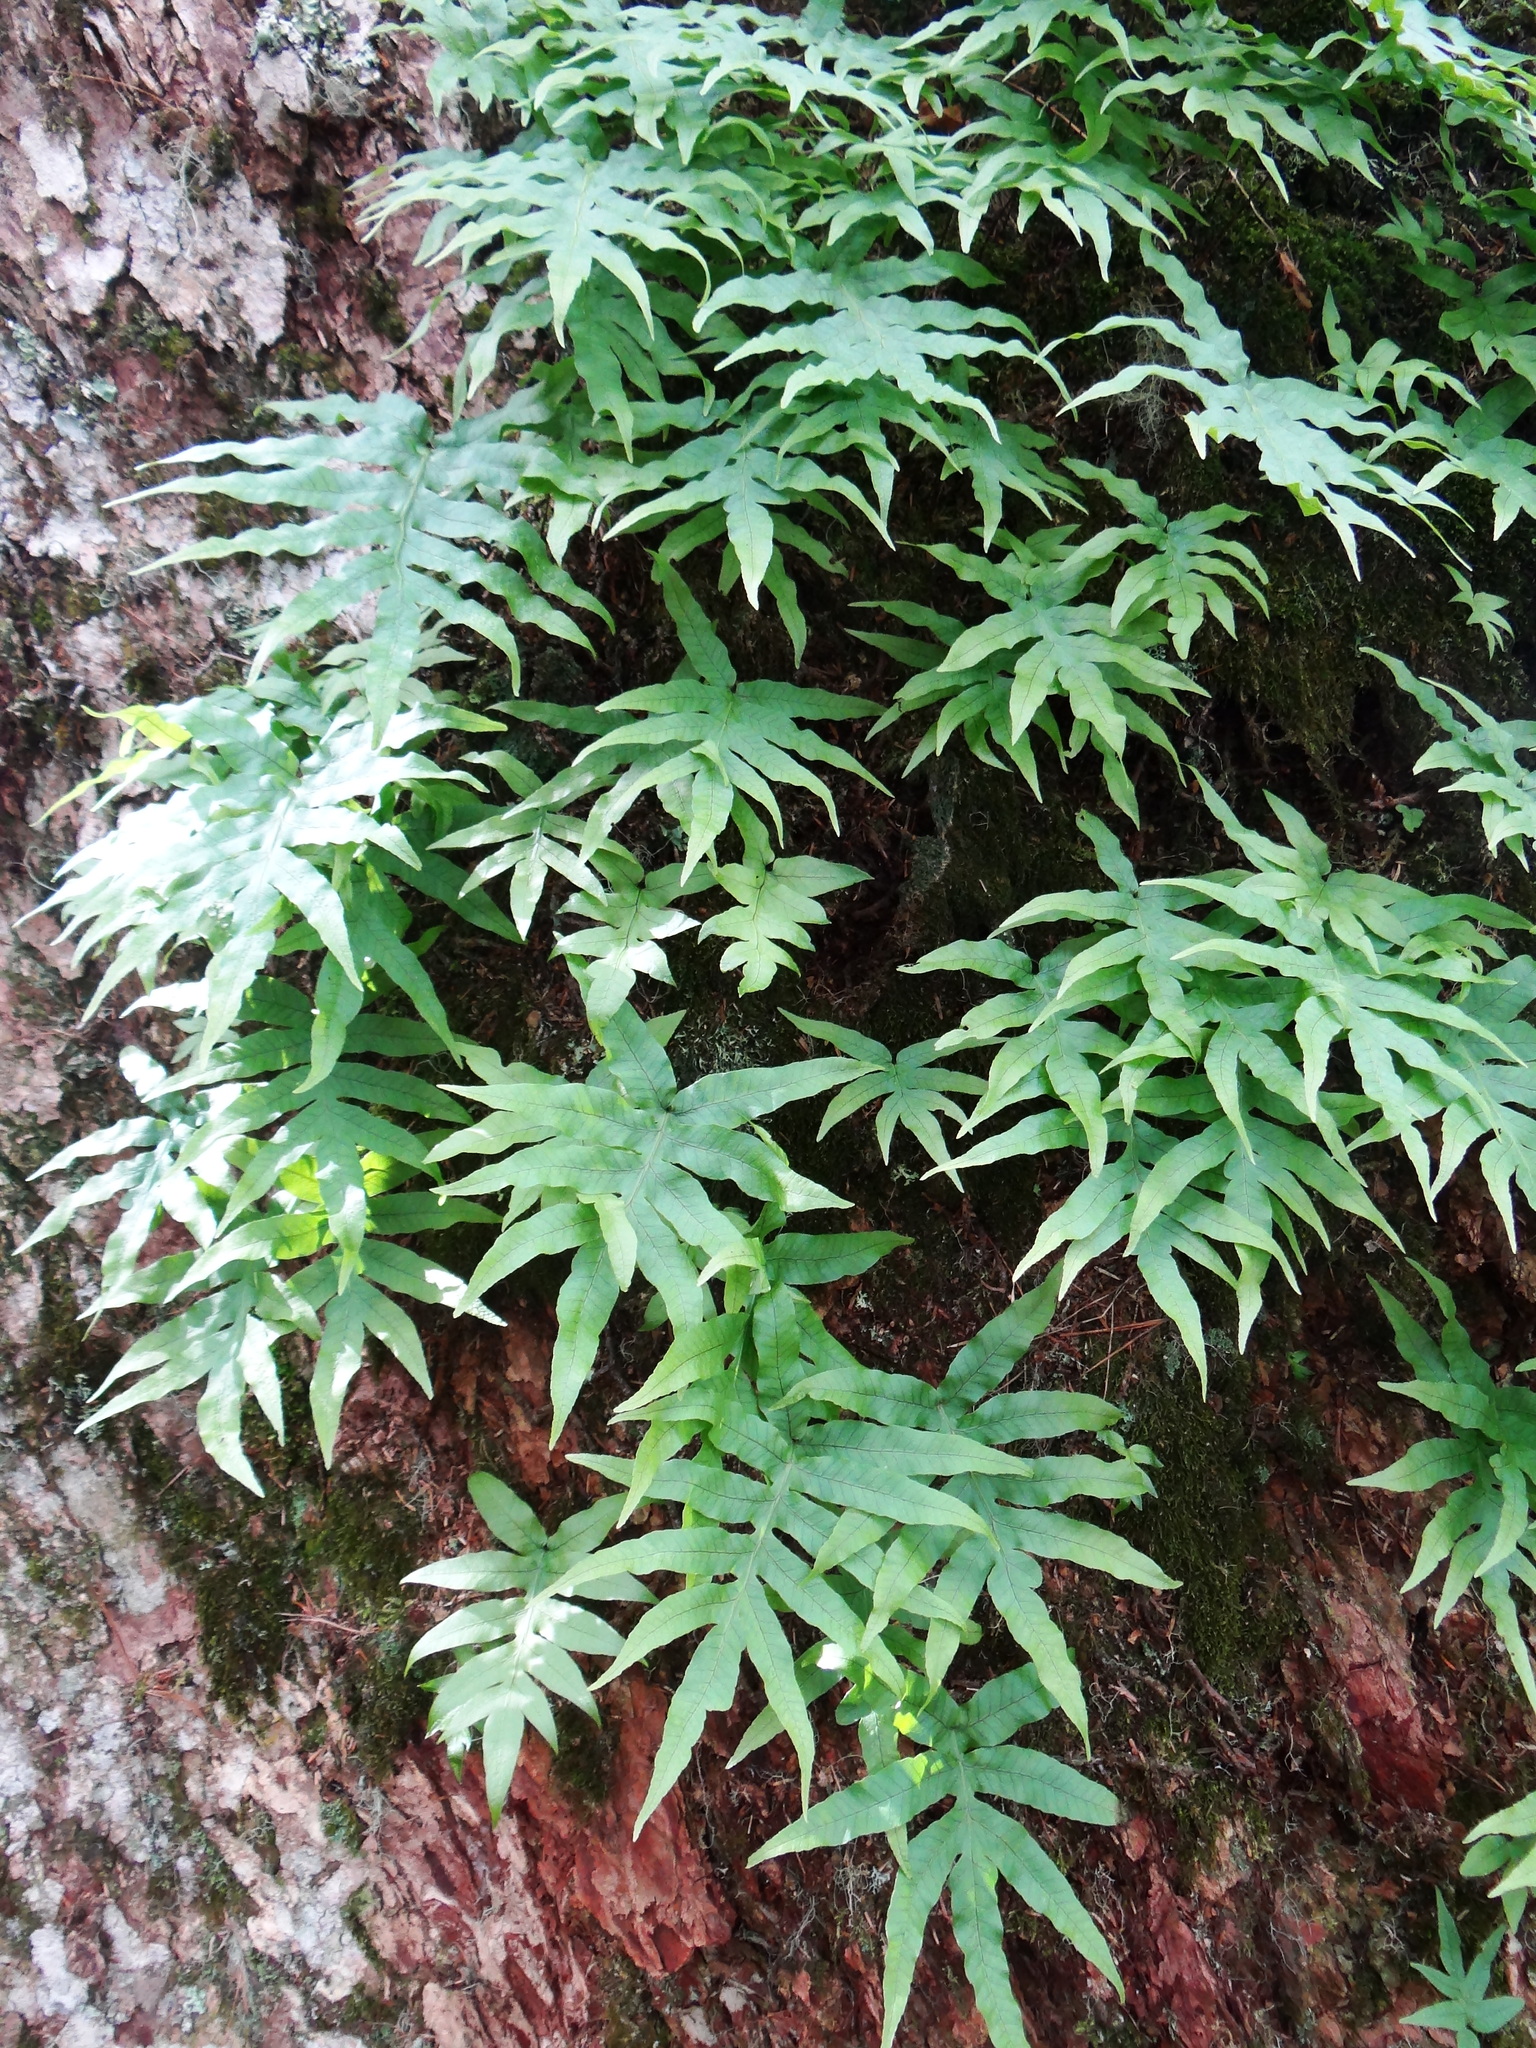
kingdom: Plantae
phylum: Tracheophyta
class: Polypodiopsida
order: Polypodiales
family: Polypodiaceae
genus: Selliguea
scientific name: Selliguea quasidivaricata
